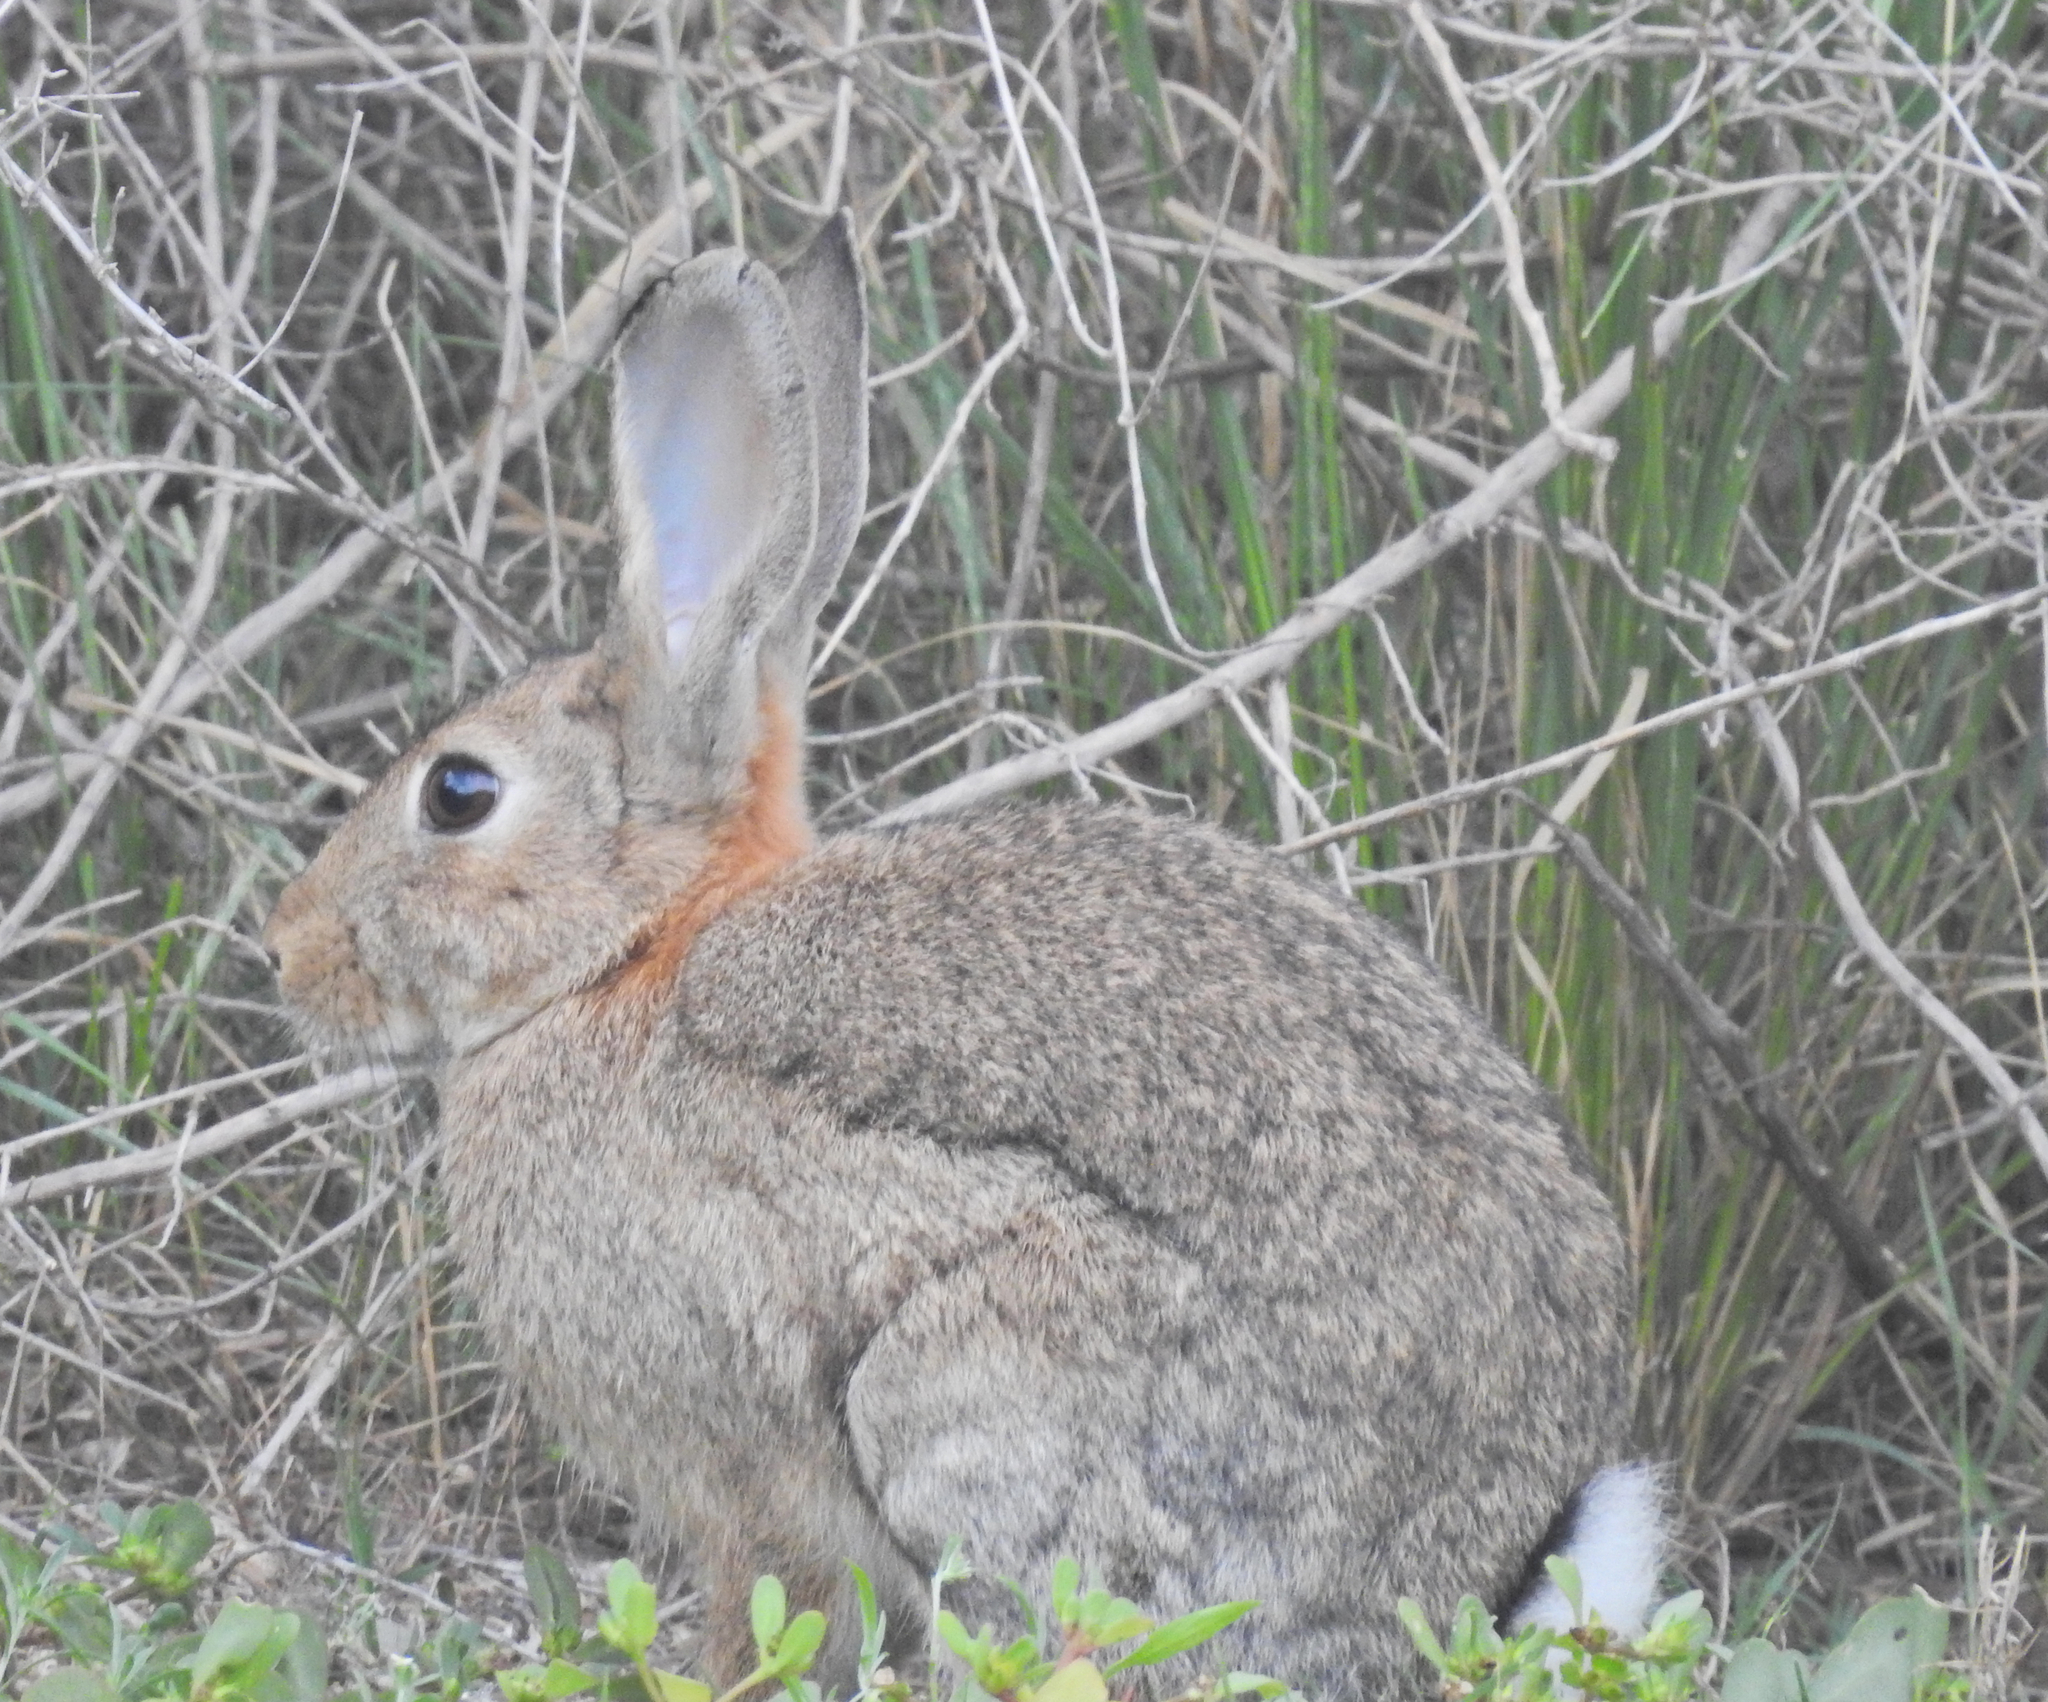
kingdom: Animalia
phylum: Chordata
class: Mammalia
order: Lagomorpha
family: Leporidae
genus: Oryctolagus
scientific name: Oryctolagus cuniculus
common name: European rabbit
